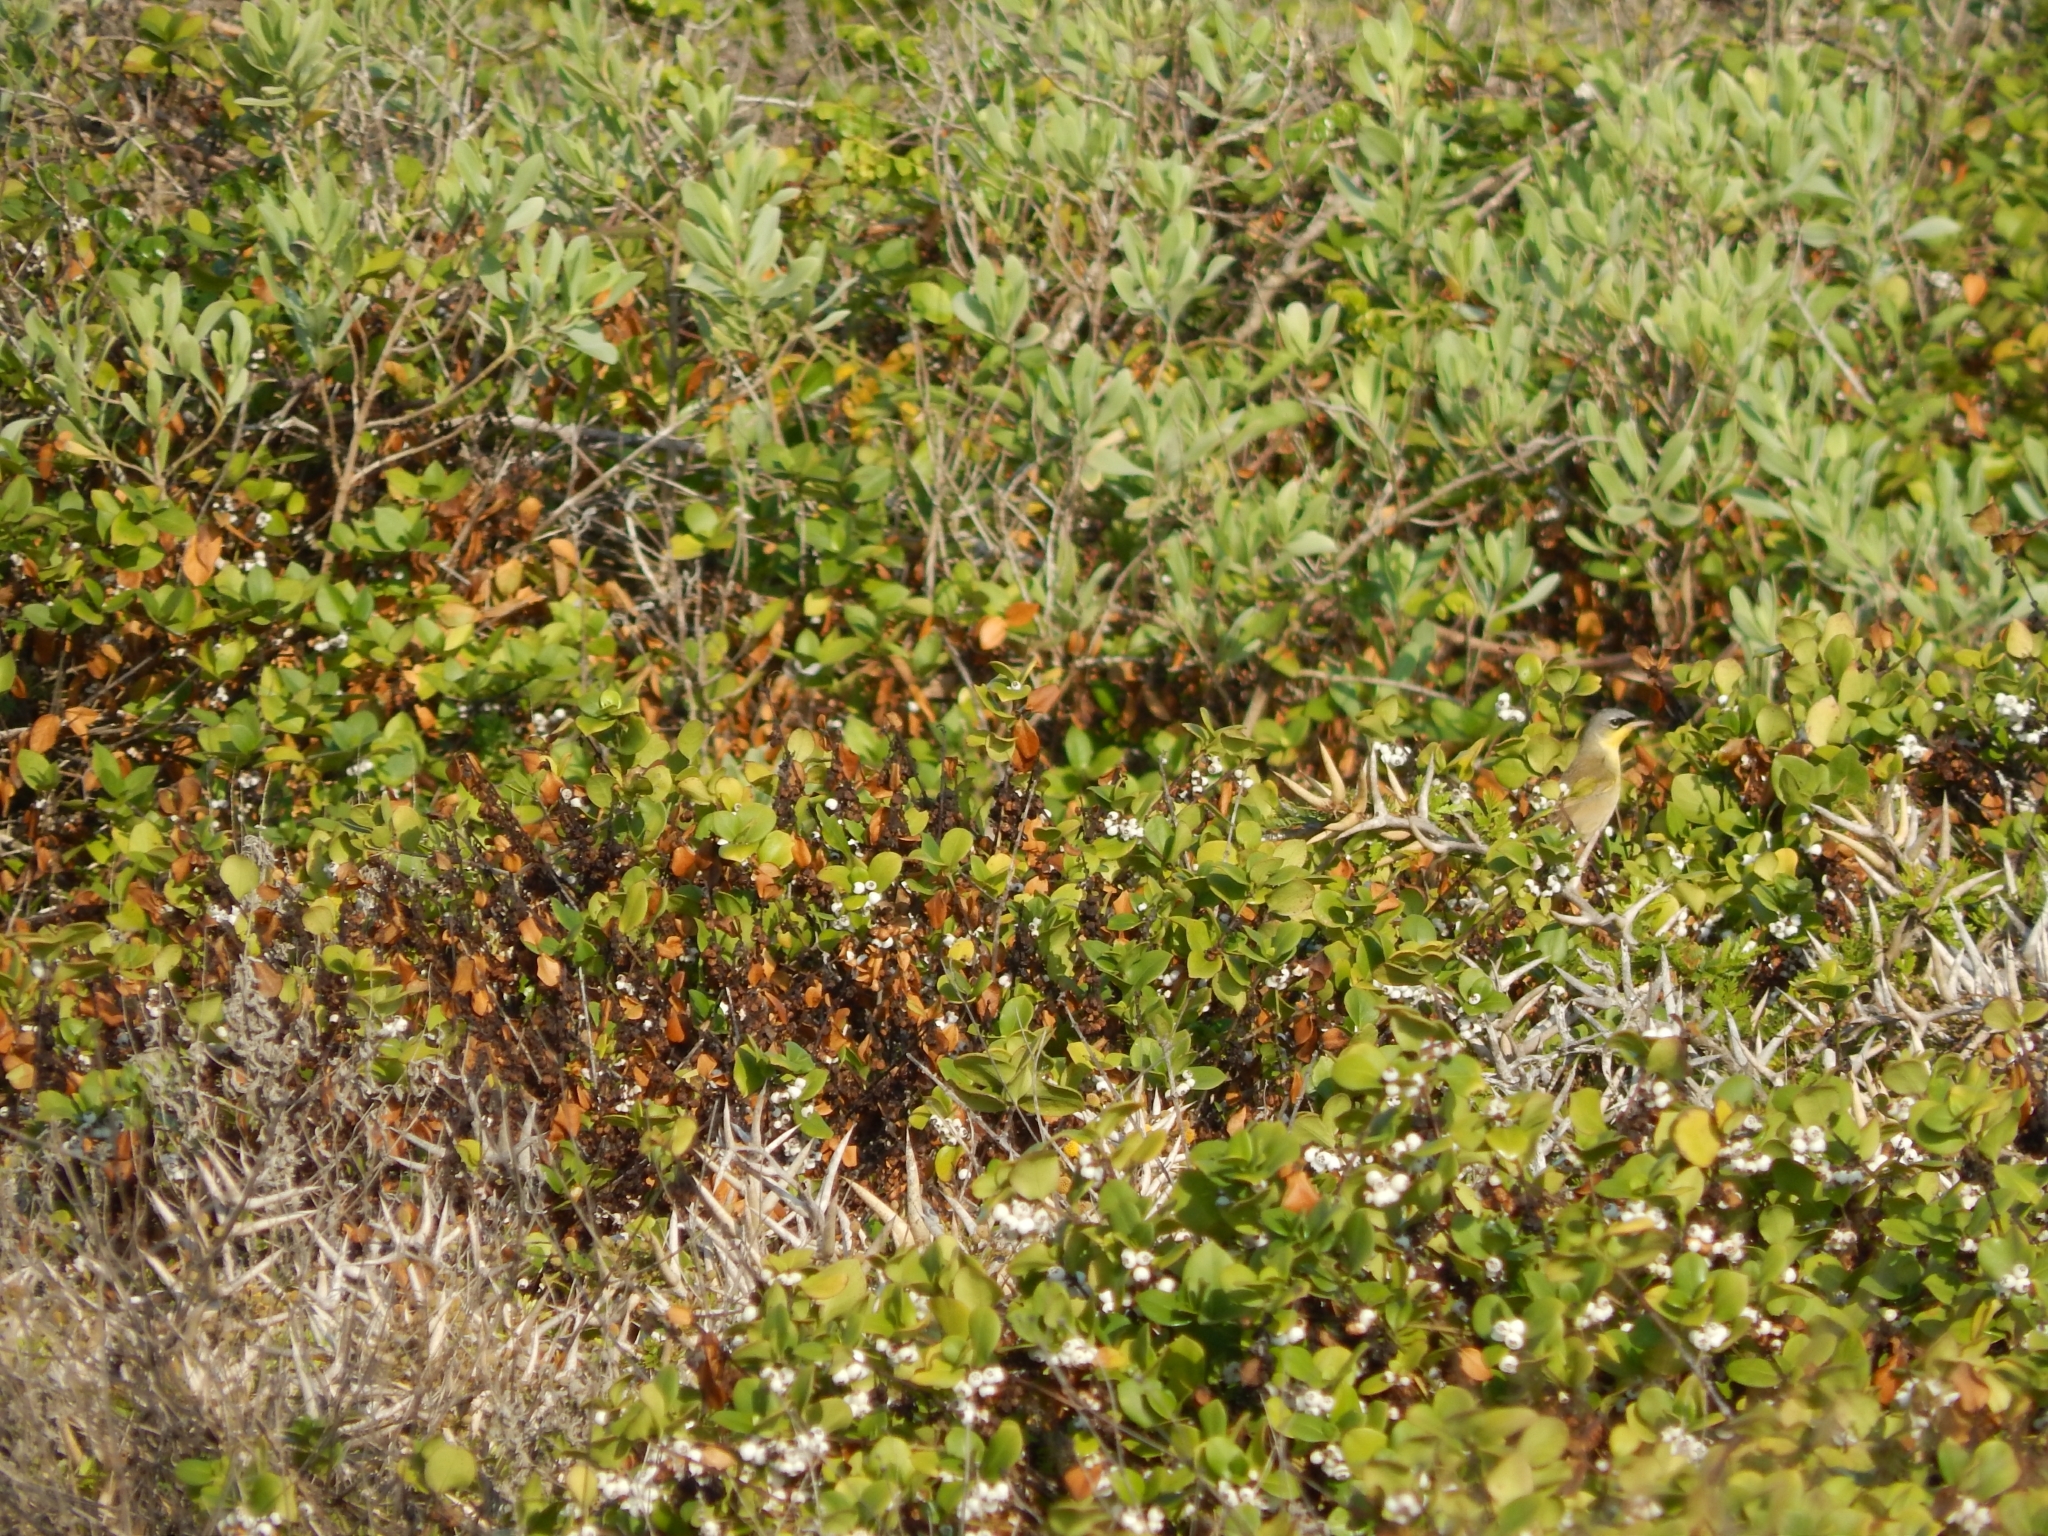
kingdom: Animalia
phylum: Chordata
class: Aves
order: Passeriformes
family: Parulidae
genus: Geothlypis
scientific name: Geothlypis poliocephala
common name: Gray-crowned yellowthroat
